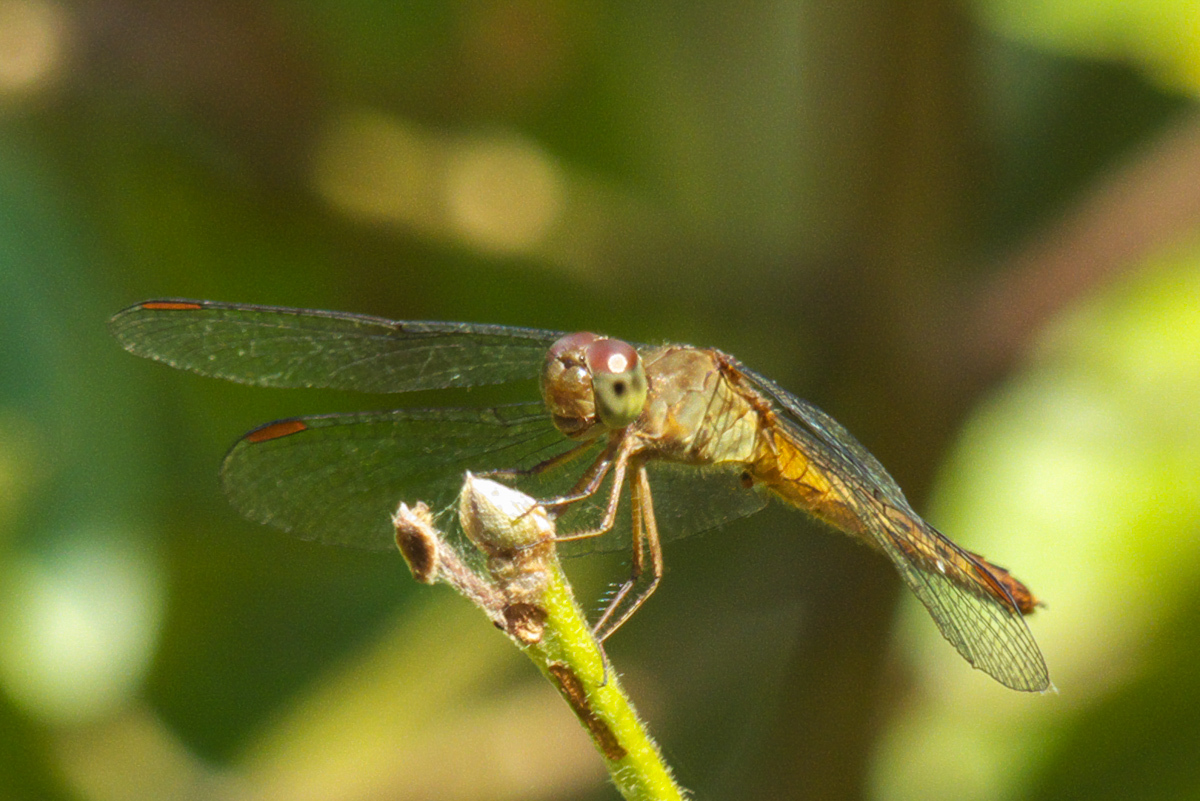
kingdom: Animalia
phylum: Arthropoda
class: Insecta
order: Odonata
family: Libellulidae
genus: Neurothemis
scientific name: Neurothemis fluctuans
